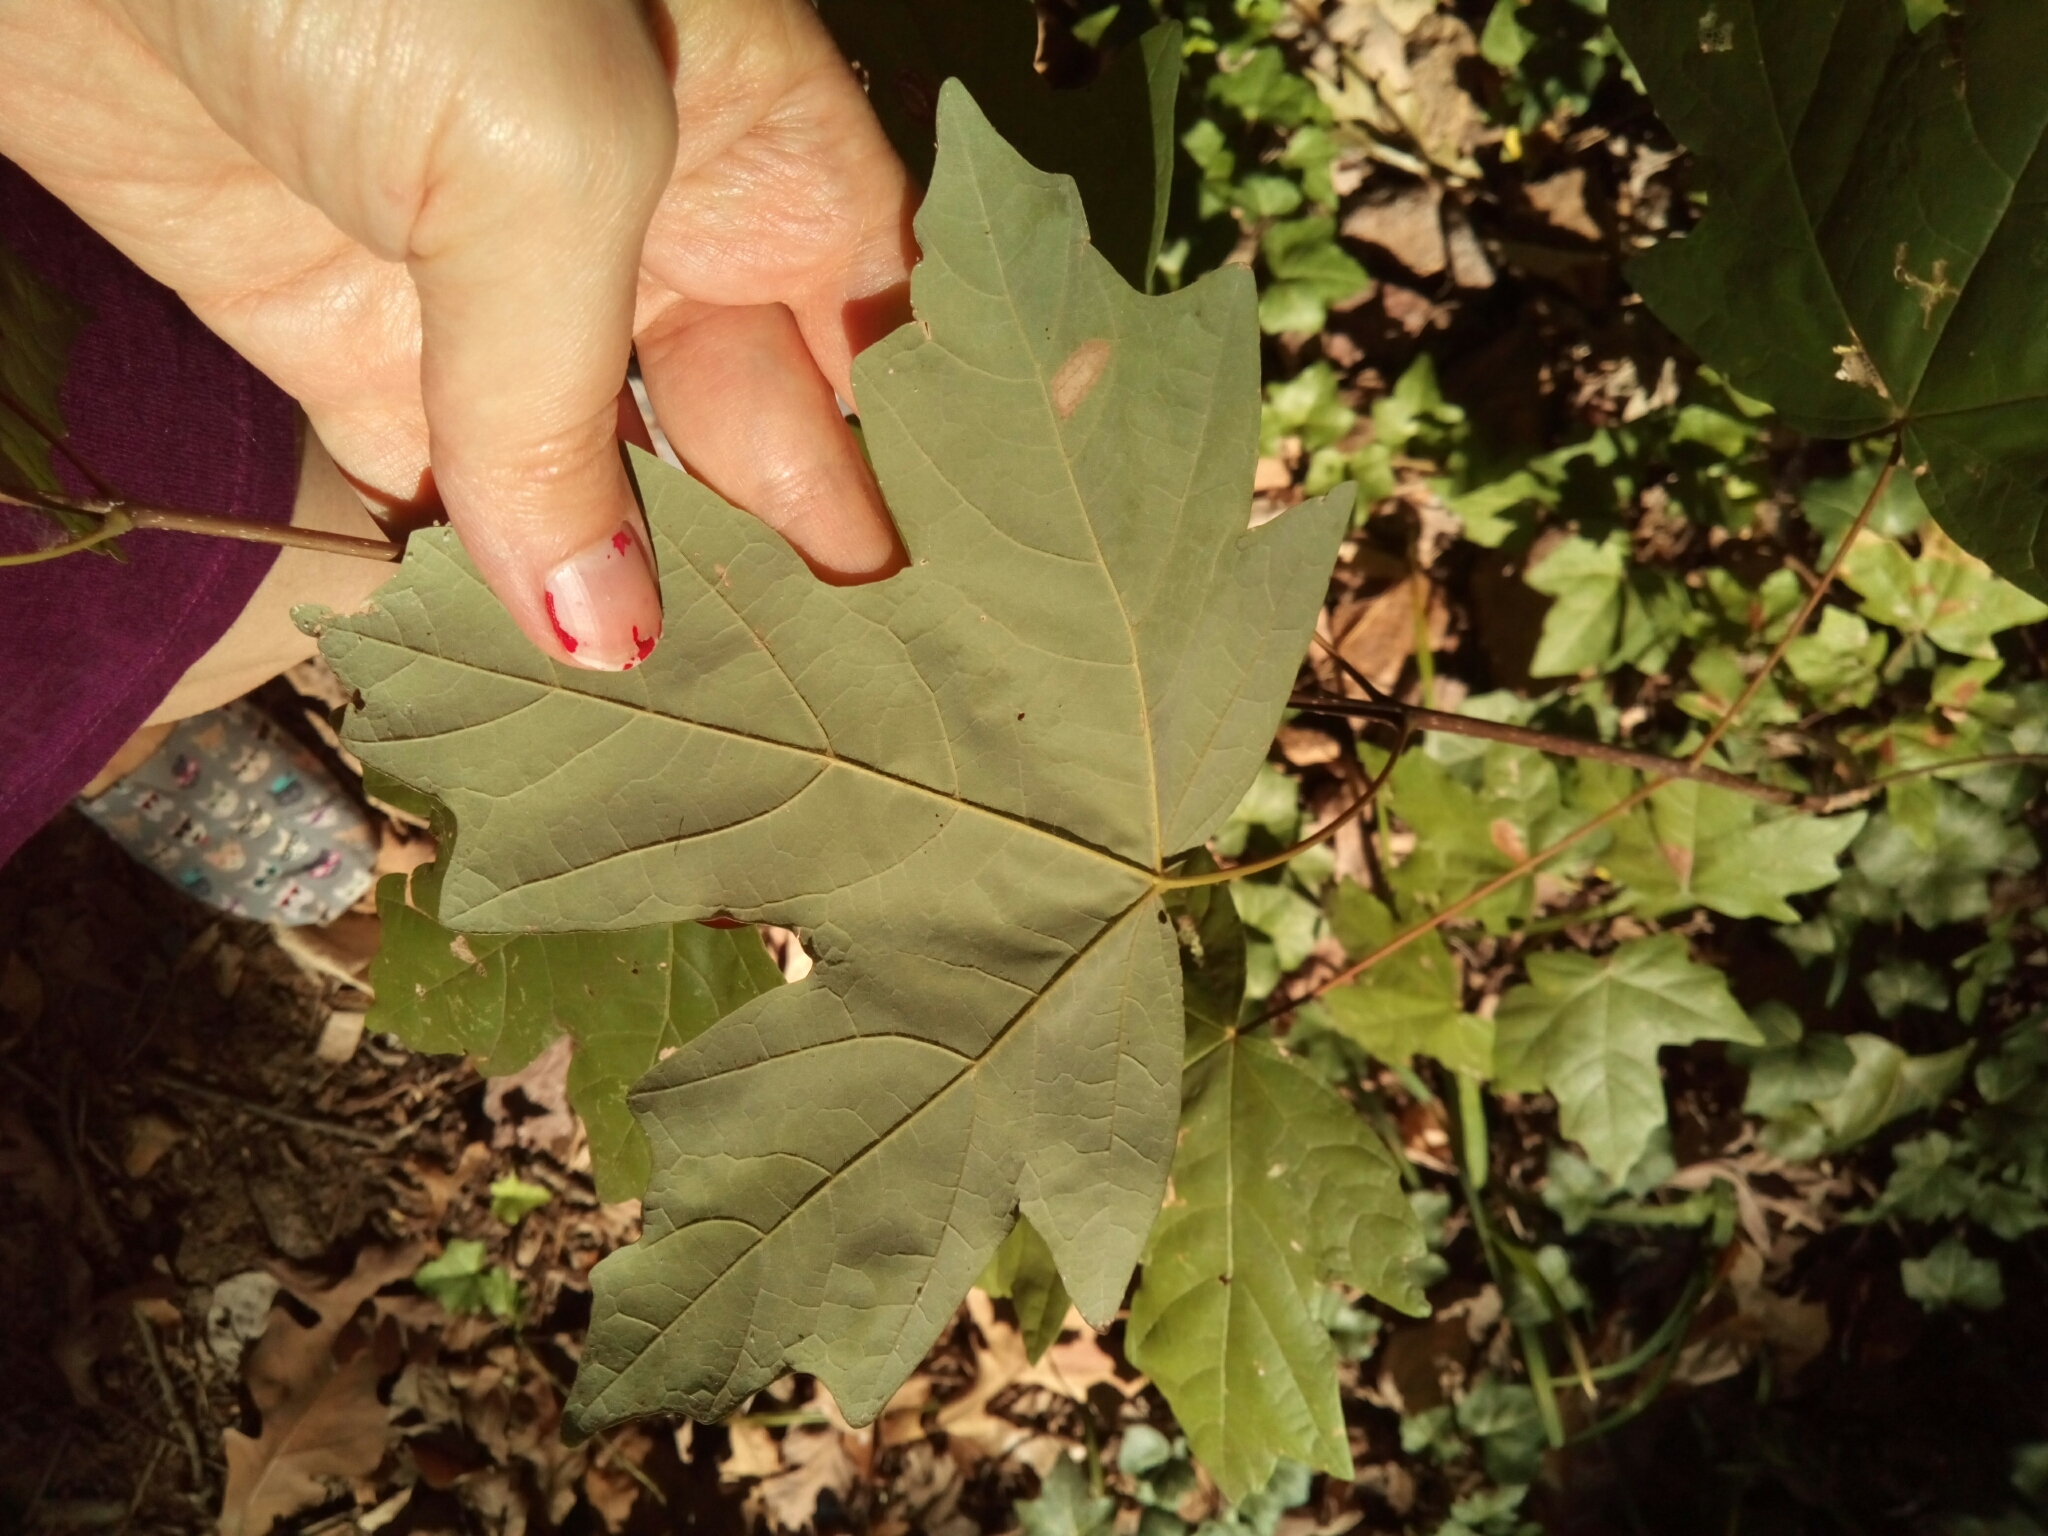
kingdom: Plantae
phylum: Tracheophyta
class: Magnoliopsida
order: Sapindales
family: Sapindaceae
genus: Acer
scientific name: Acer floridanum
